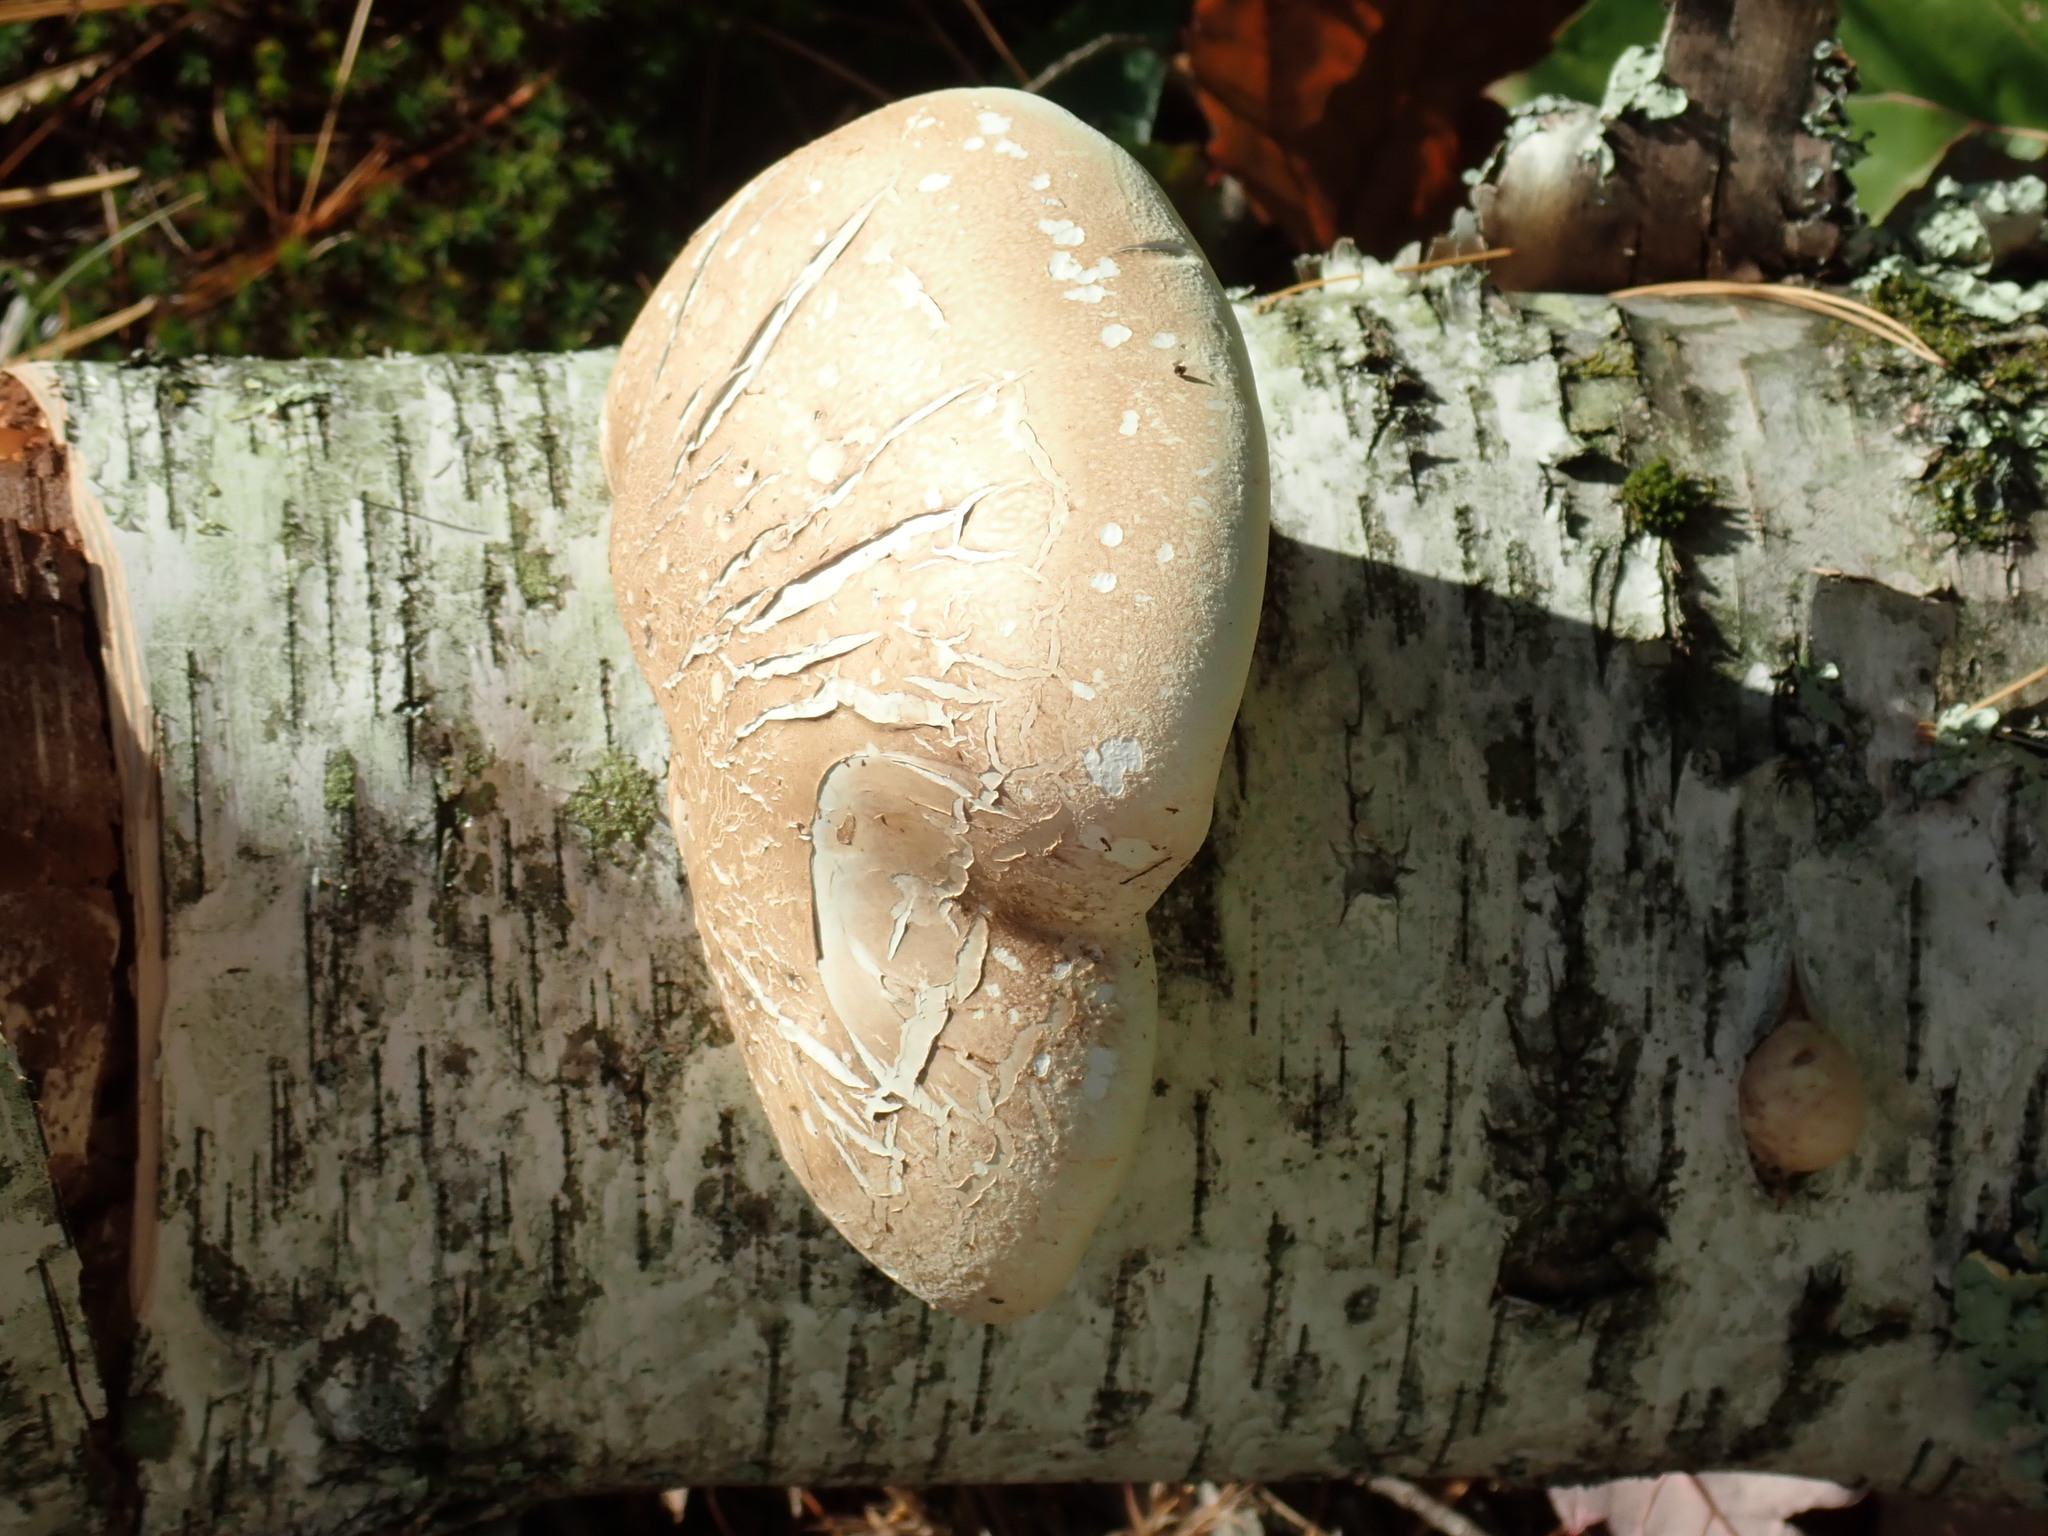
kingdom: Fungi
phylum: Basidiomycota
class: Agaricomycetes
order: Polyporales
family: Fomitopsidaceae
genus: Fomitopsis
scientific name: Fomitopsis betulina
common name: Birch polypore
